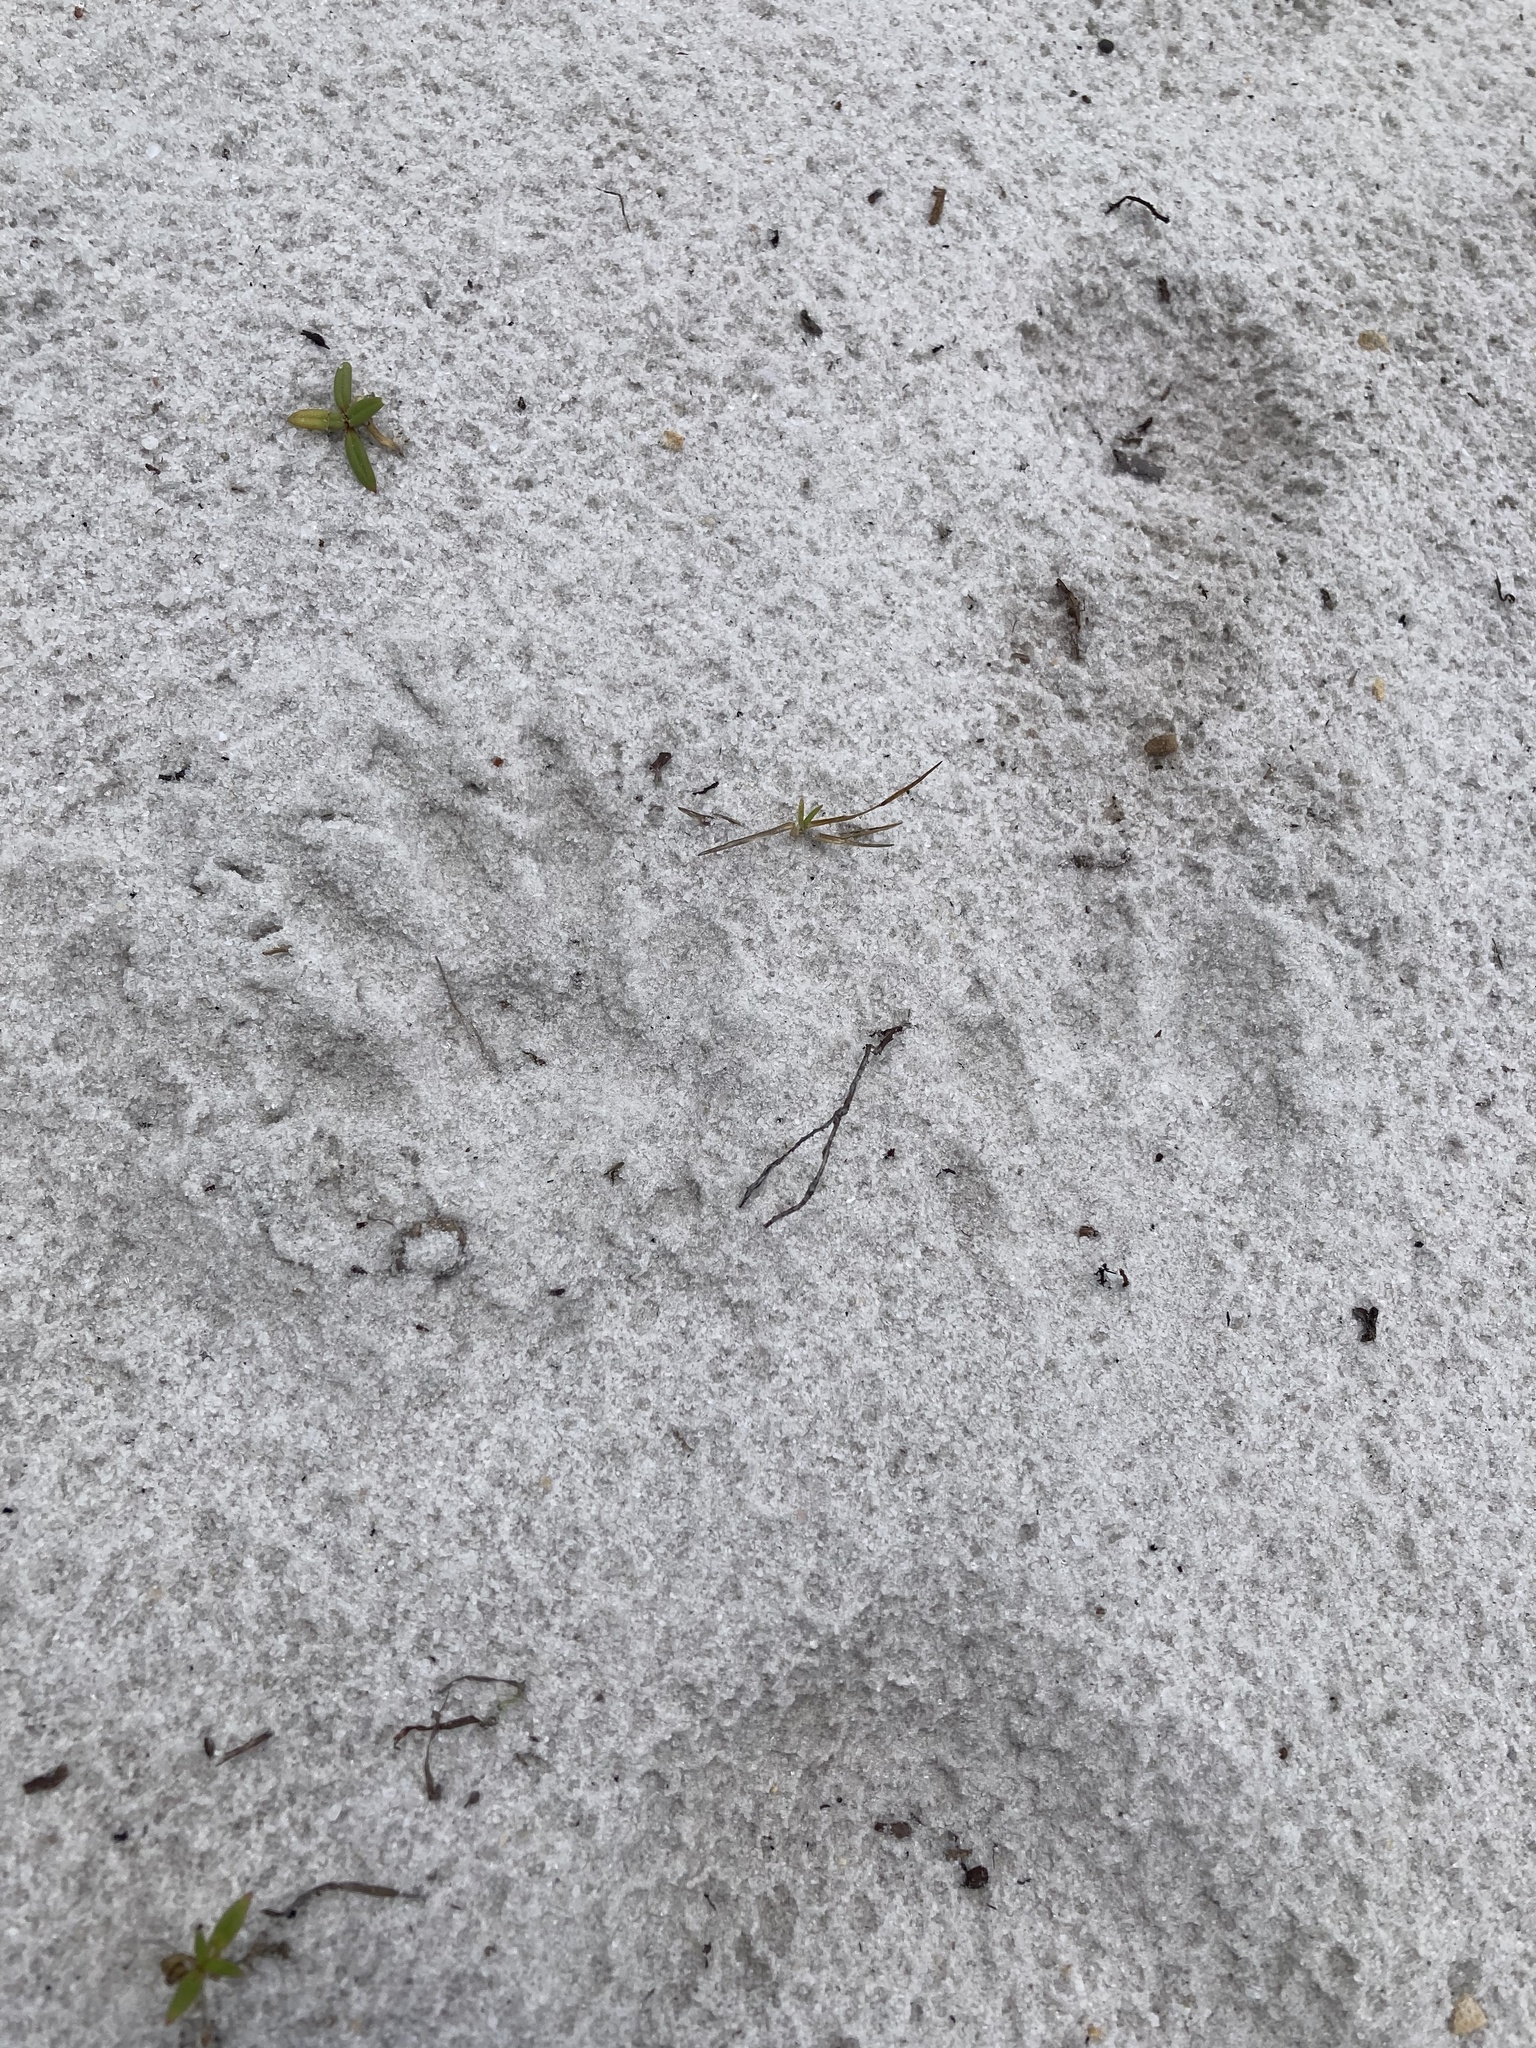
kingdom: Animalia
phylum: Chordata
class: Mammalia
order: Carnivora
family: Procyonidae
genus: Procyon
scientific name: Procyon lotor
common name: Raccoon
